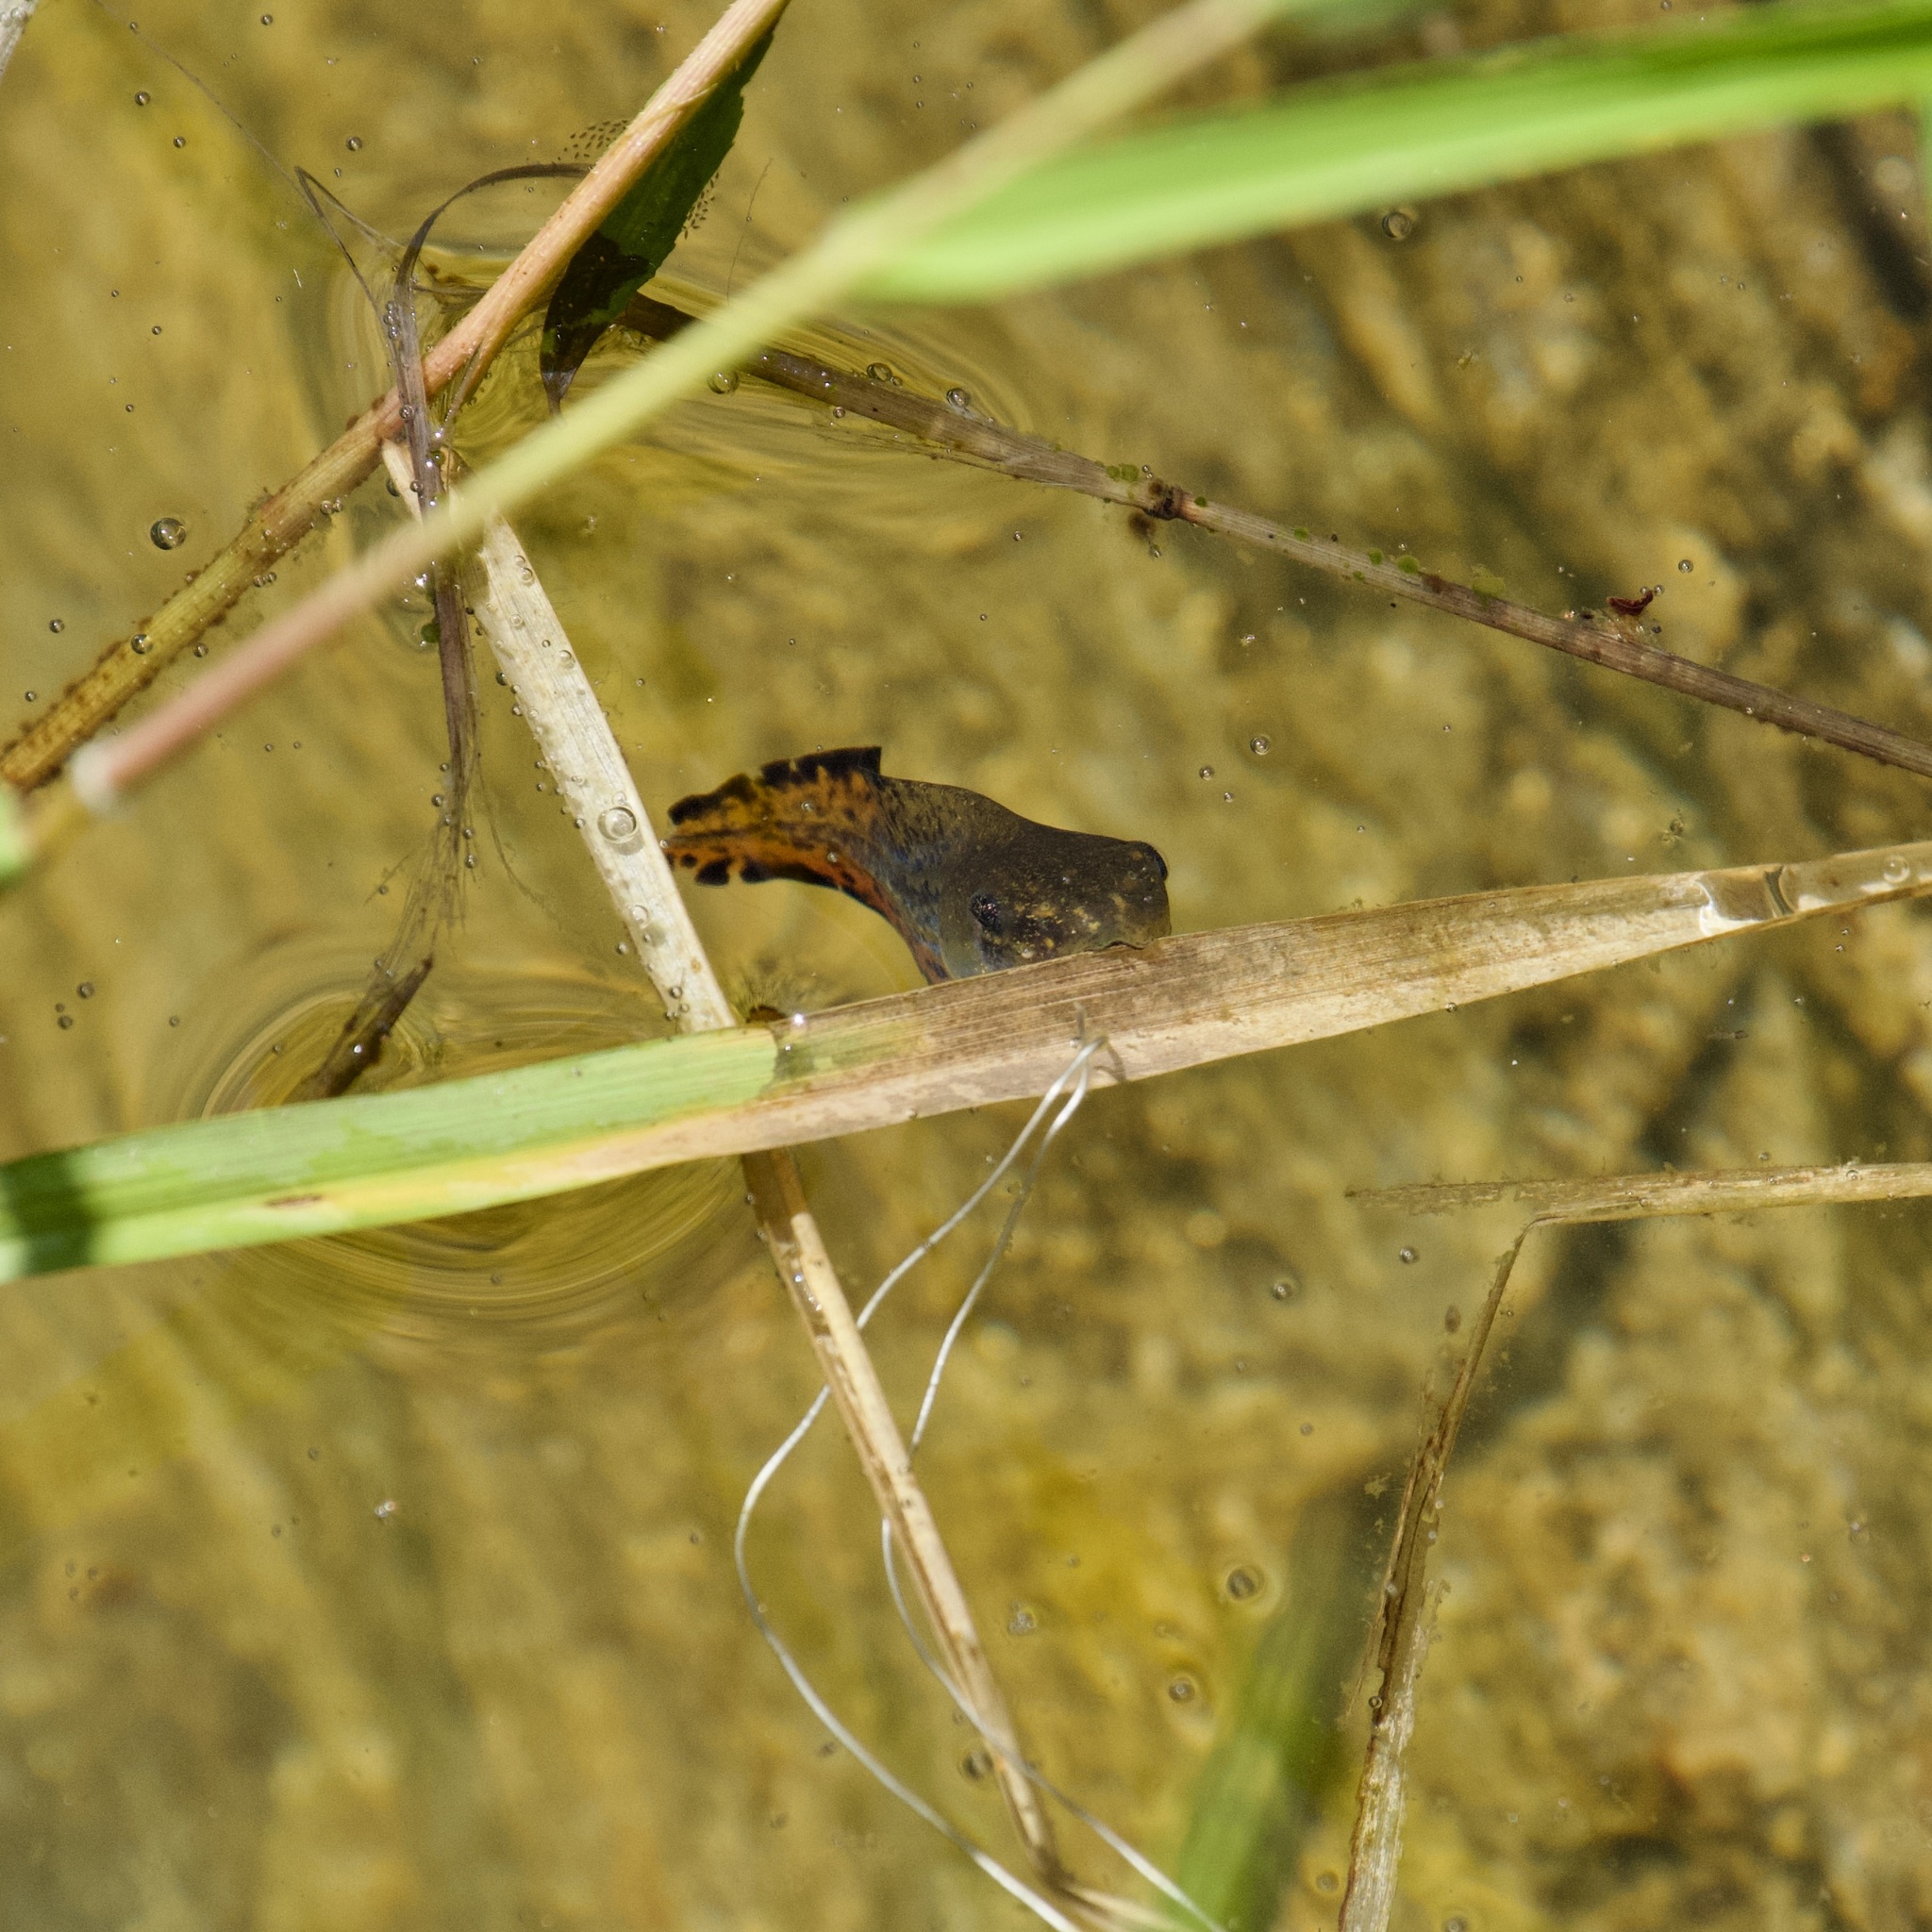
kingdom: Animalia
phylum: Chordata
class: Amphibia
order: Anura
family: Hylidae
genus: Dryophytes
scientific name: Dryophytes versicolor
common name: Gray treefrog
